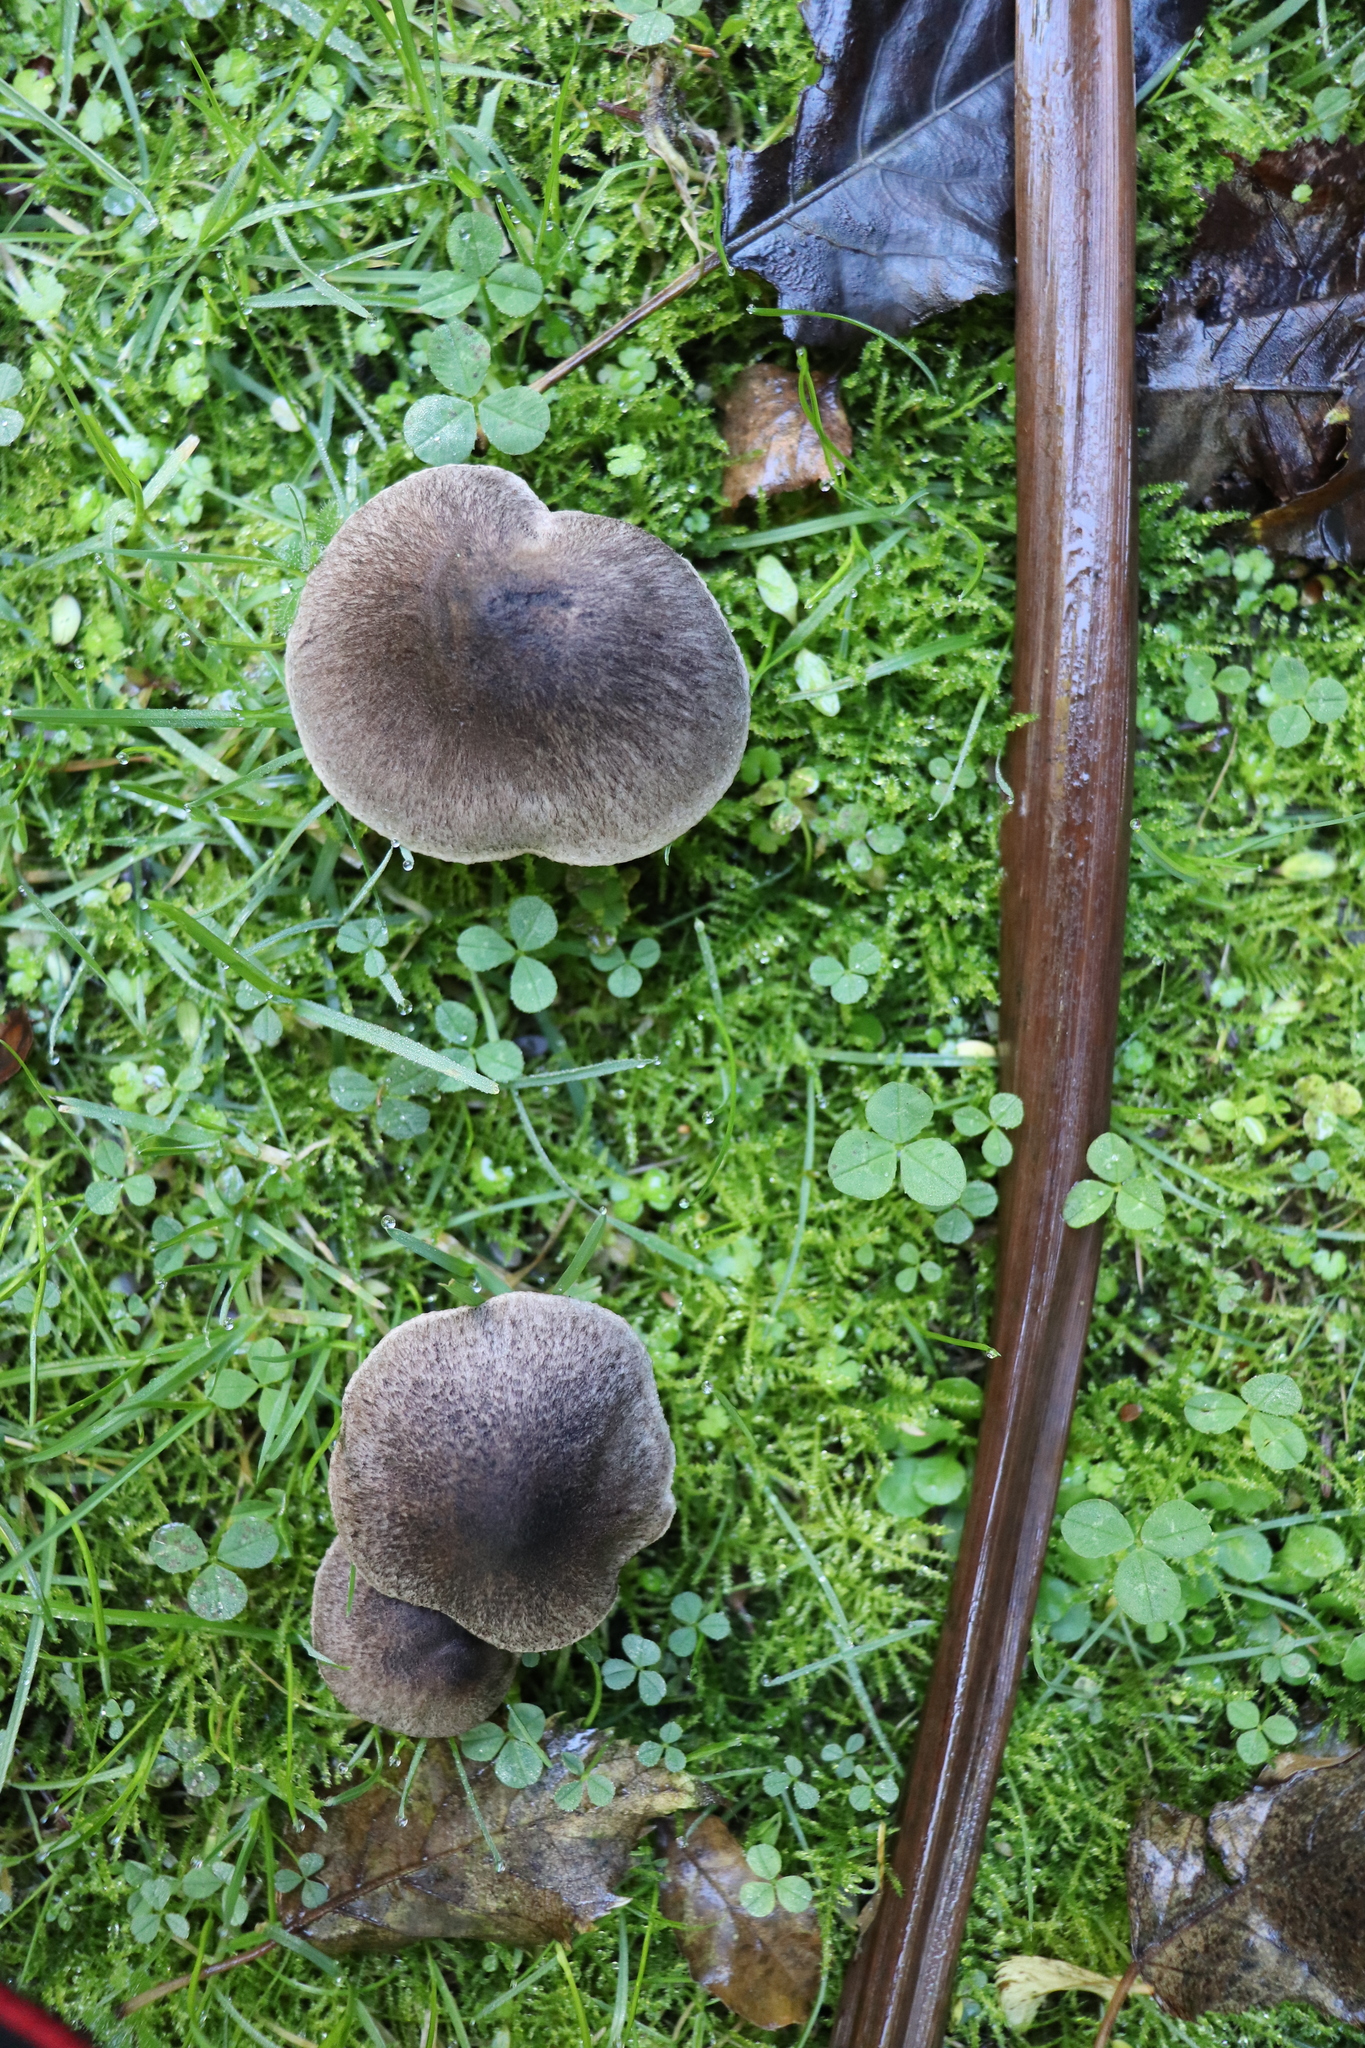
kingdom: Fungi
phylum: Basidiomycota
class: Agaricomycetes
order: Agaricales
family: Tricholomataceae
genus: Tricholoma
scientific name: Tricholoma terreum
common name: Grey knight
